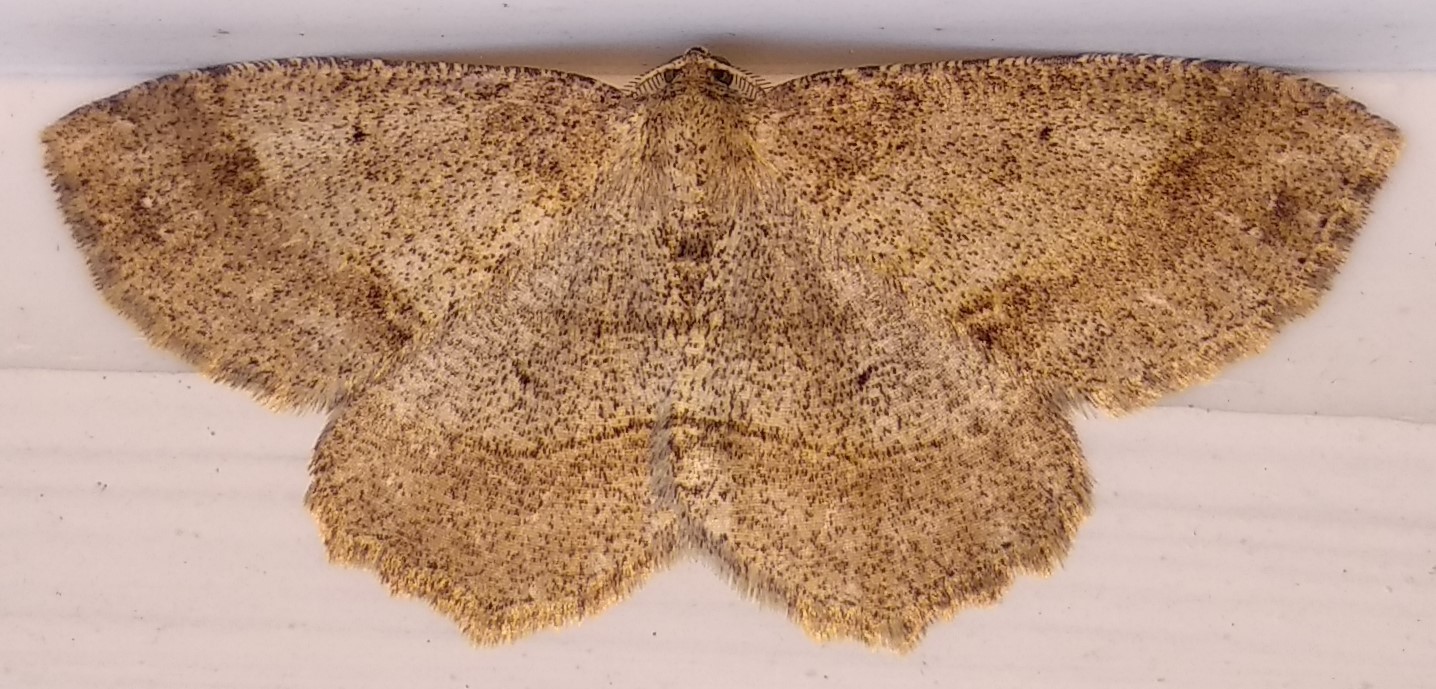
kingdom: Animalia
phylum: Arthropoda
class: Insecta
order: Lepidoptera
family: Geometridae
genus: Melanolophia
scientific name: Melanolophia signataria
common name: Signate melanolophia
